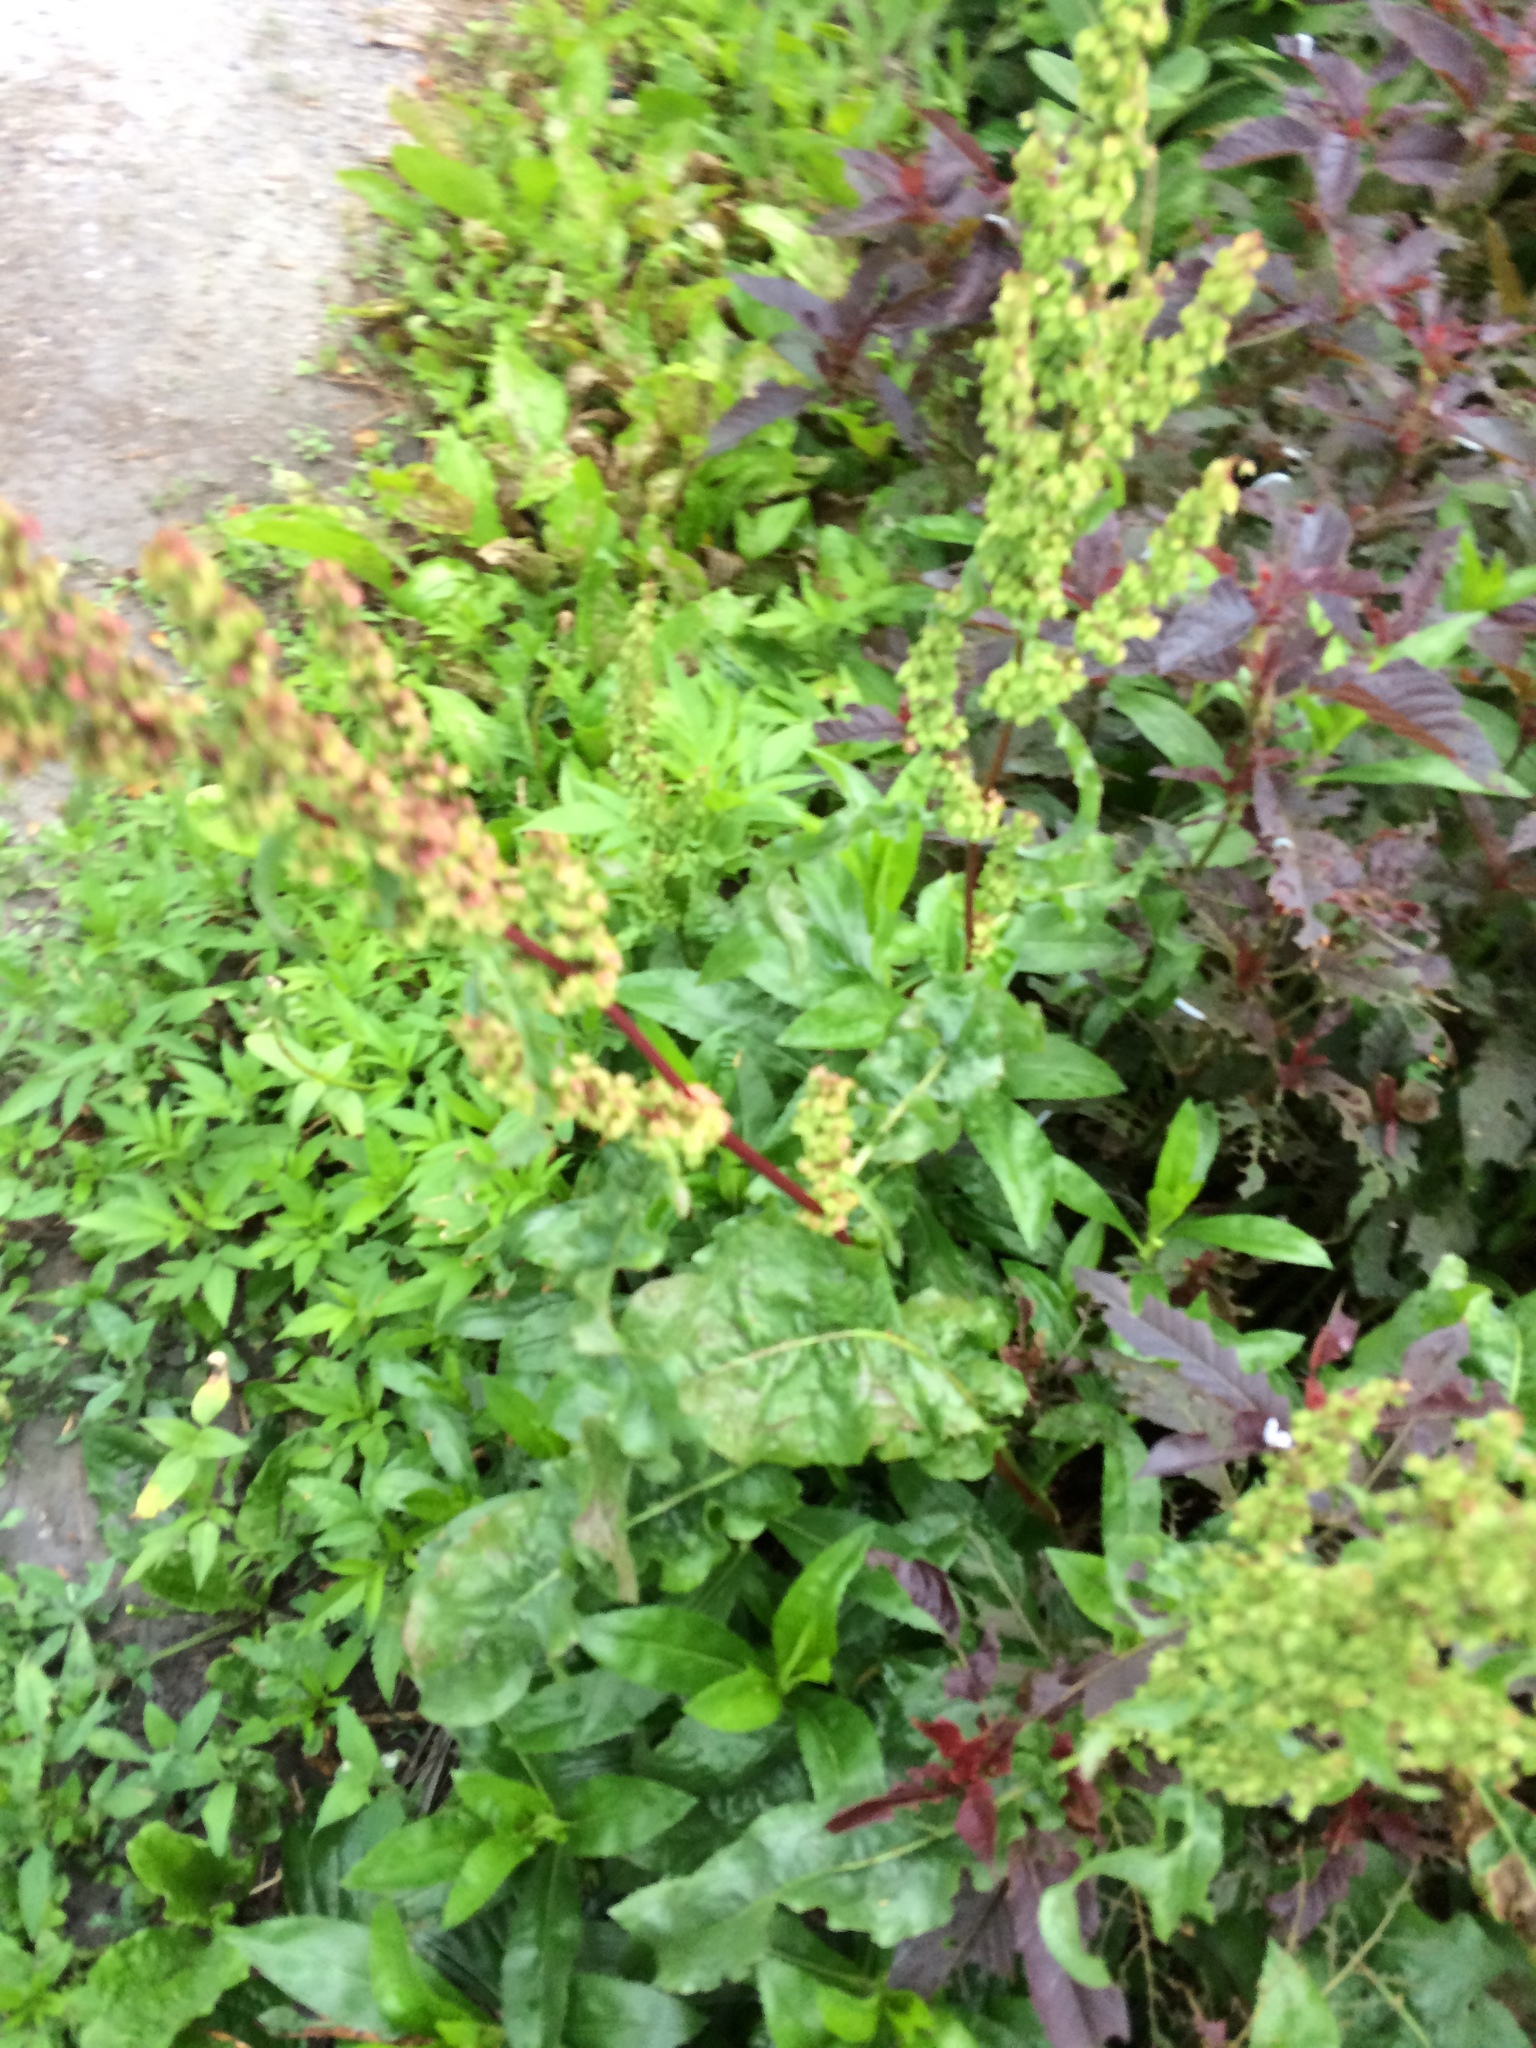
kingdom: Plantae
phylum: Tracheophyta
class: Magnoliopsida
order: Caryophyllales
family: Polygonaceae
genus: Rumex
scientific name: Rumex crispus
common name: Curled dock
